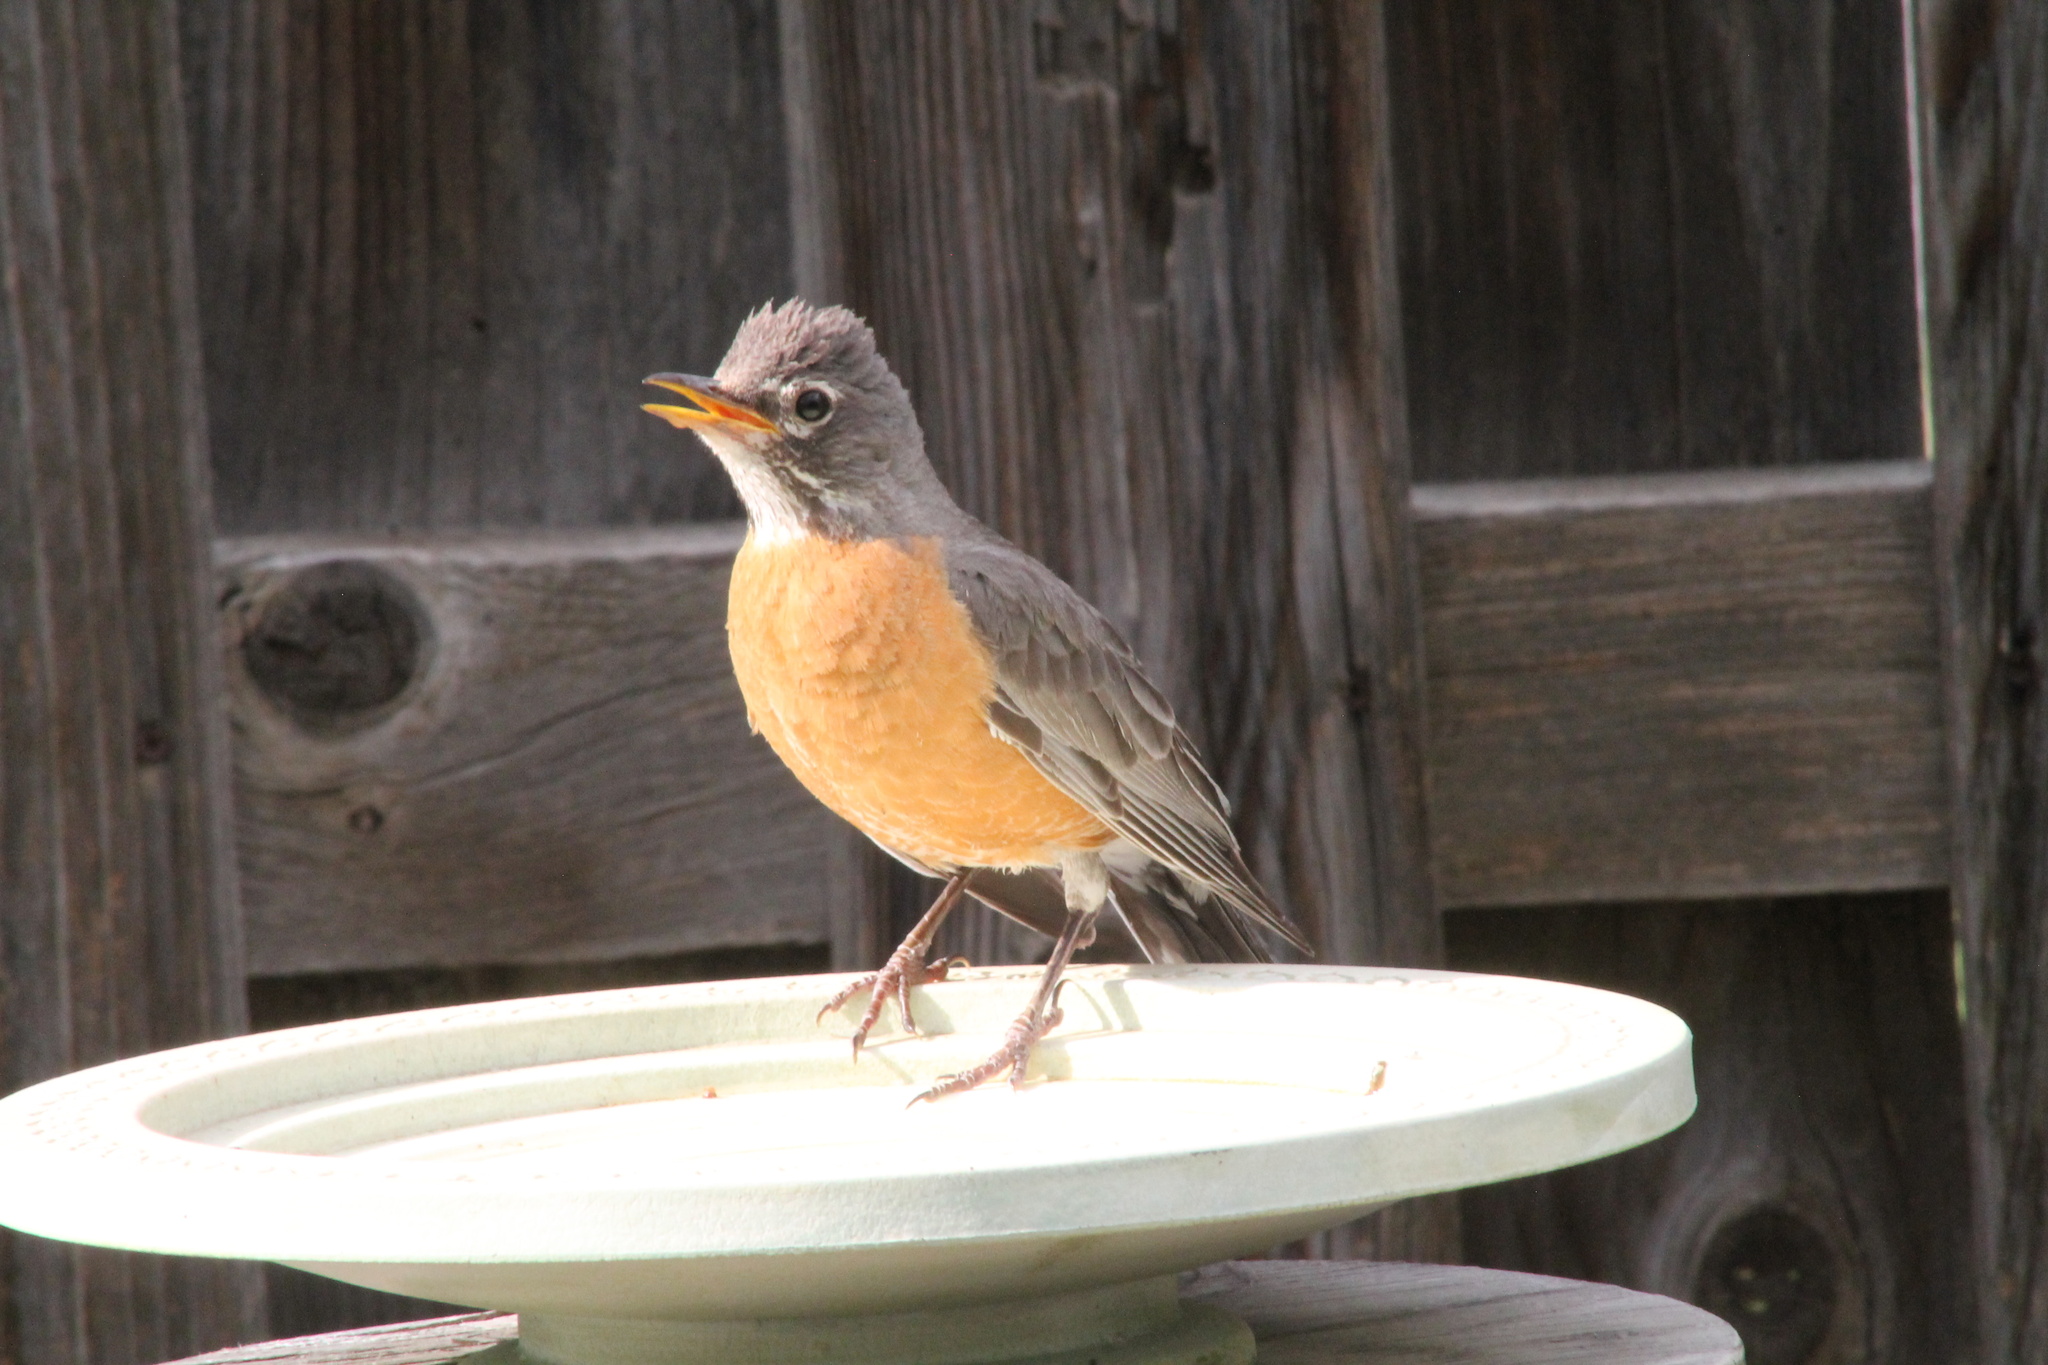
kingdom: Animalia
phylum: Chordata
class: Aves
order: Passeriformes
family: Turdidae
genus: Turdus
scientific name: Turdus migratorius
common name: American robin
